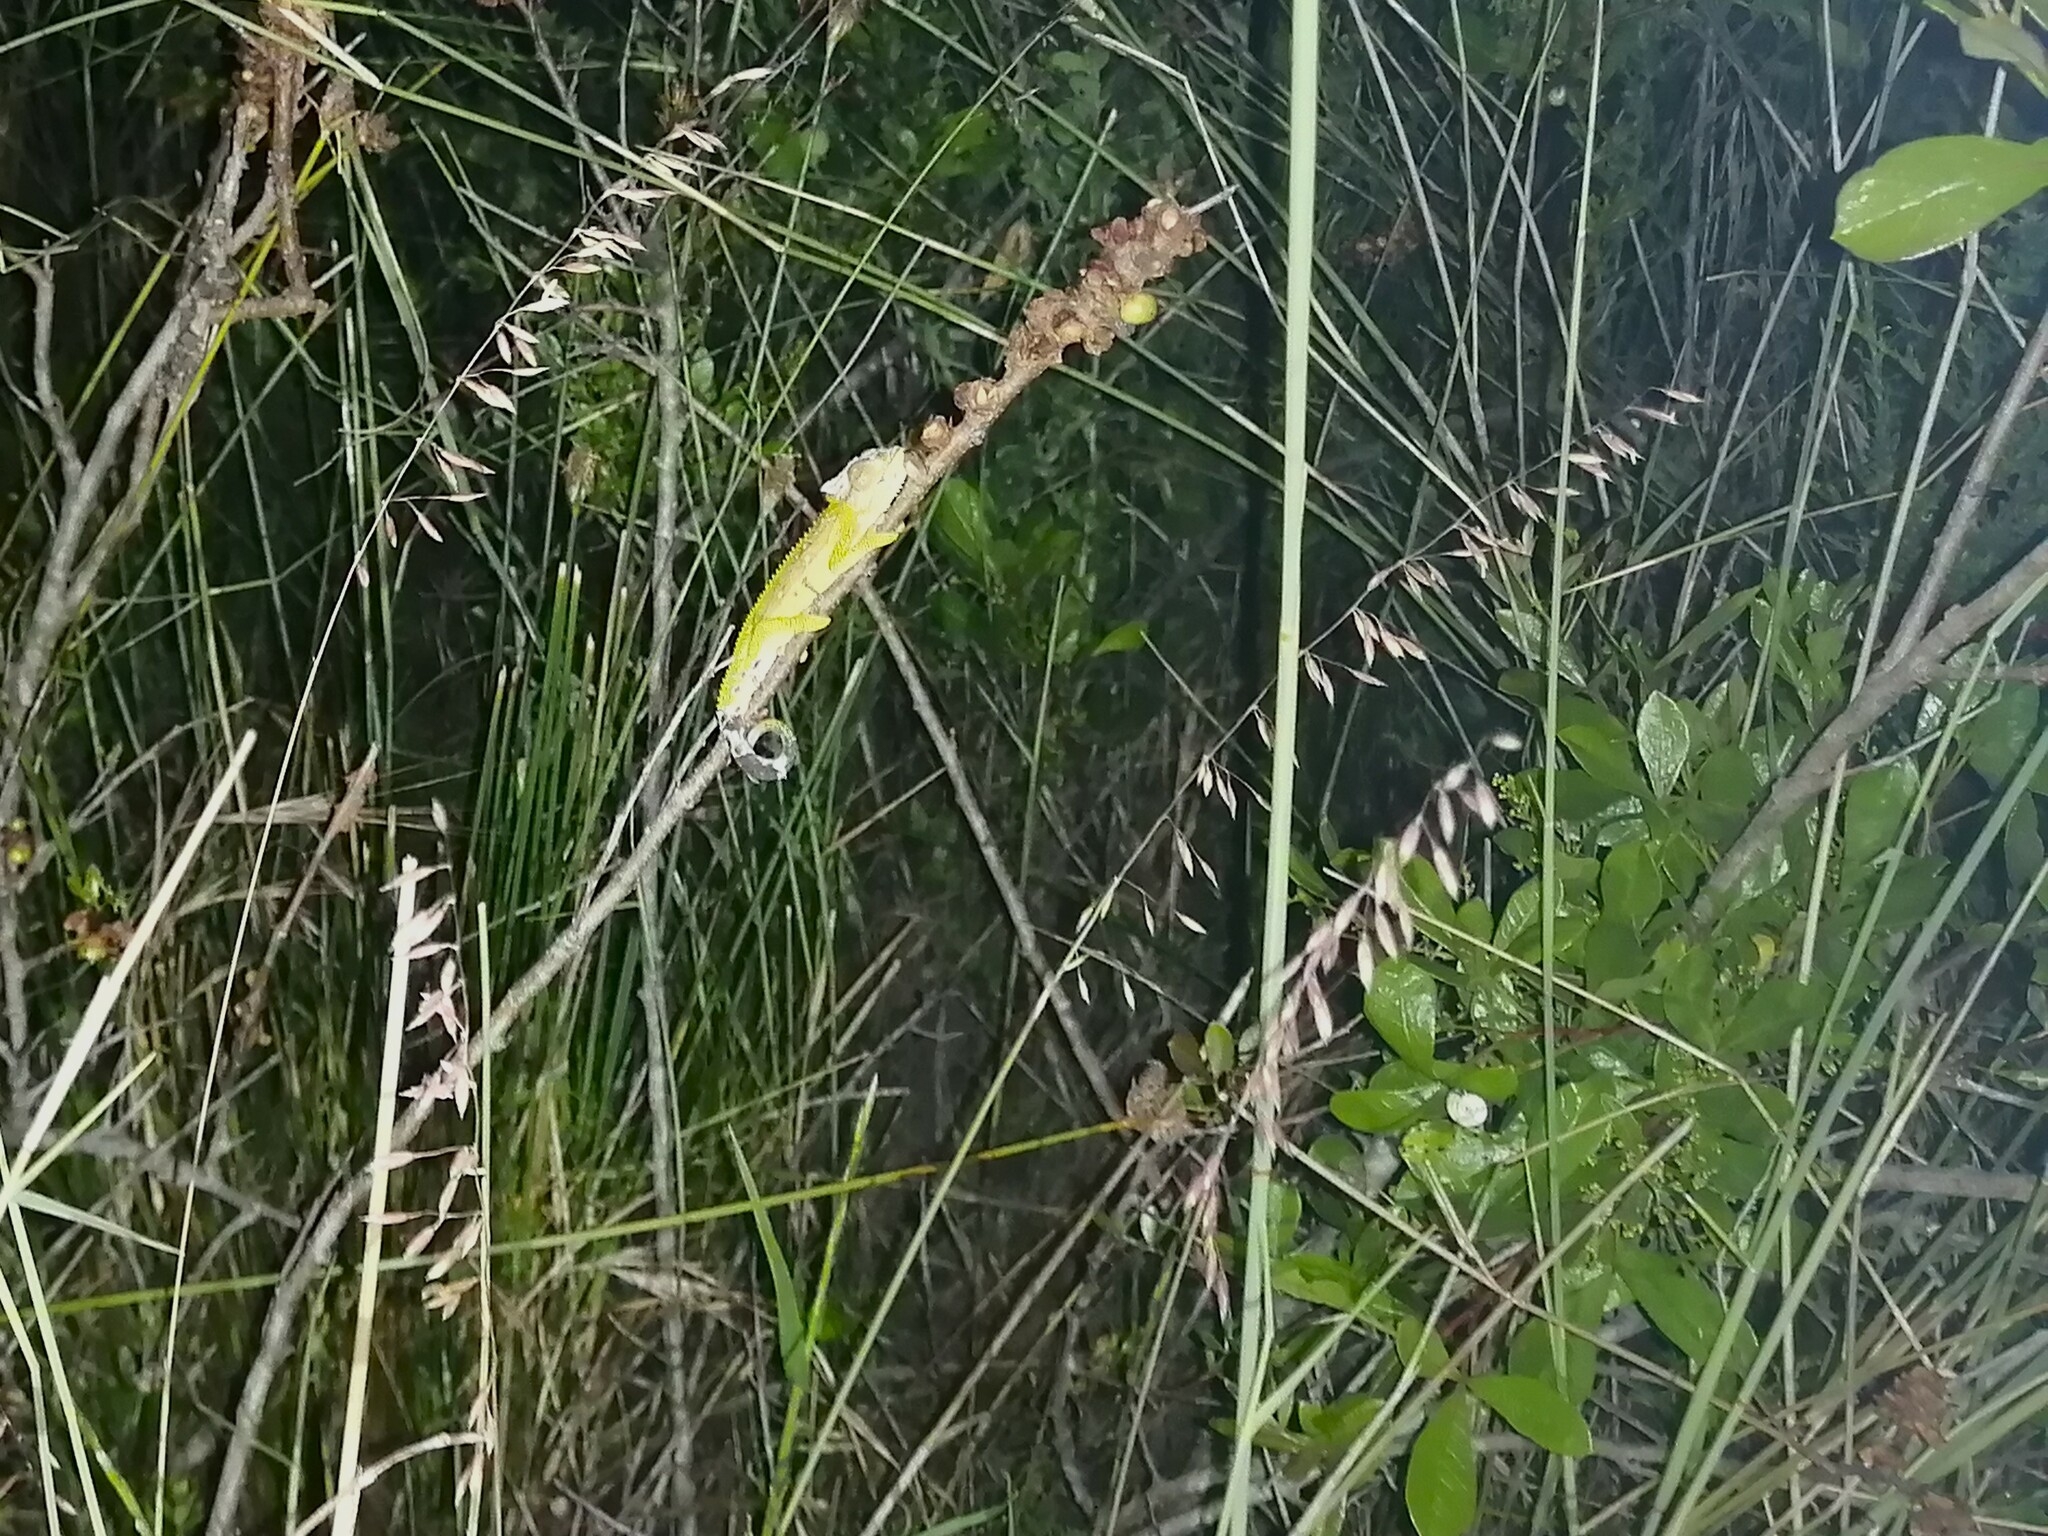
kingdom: Animalia
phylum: Chordata
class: Squamata
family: Chamaeleonidae
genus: Bradypodion
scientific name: Bradypodion pumilum
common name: Cape dwarf chameleon
